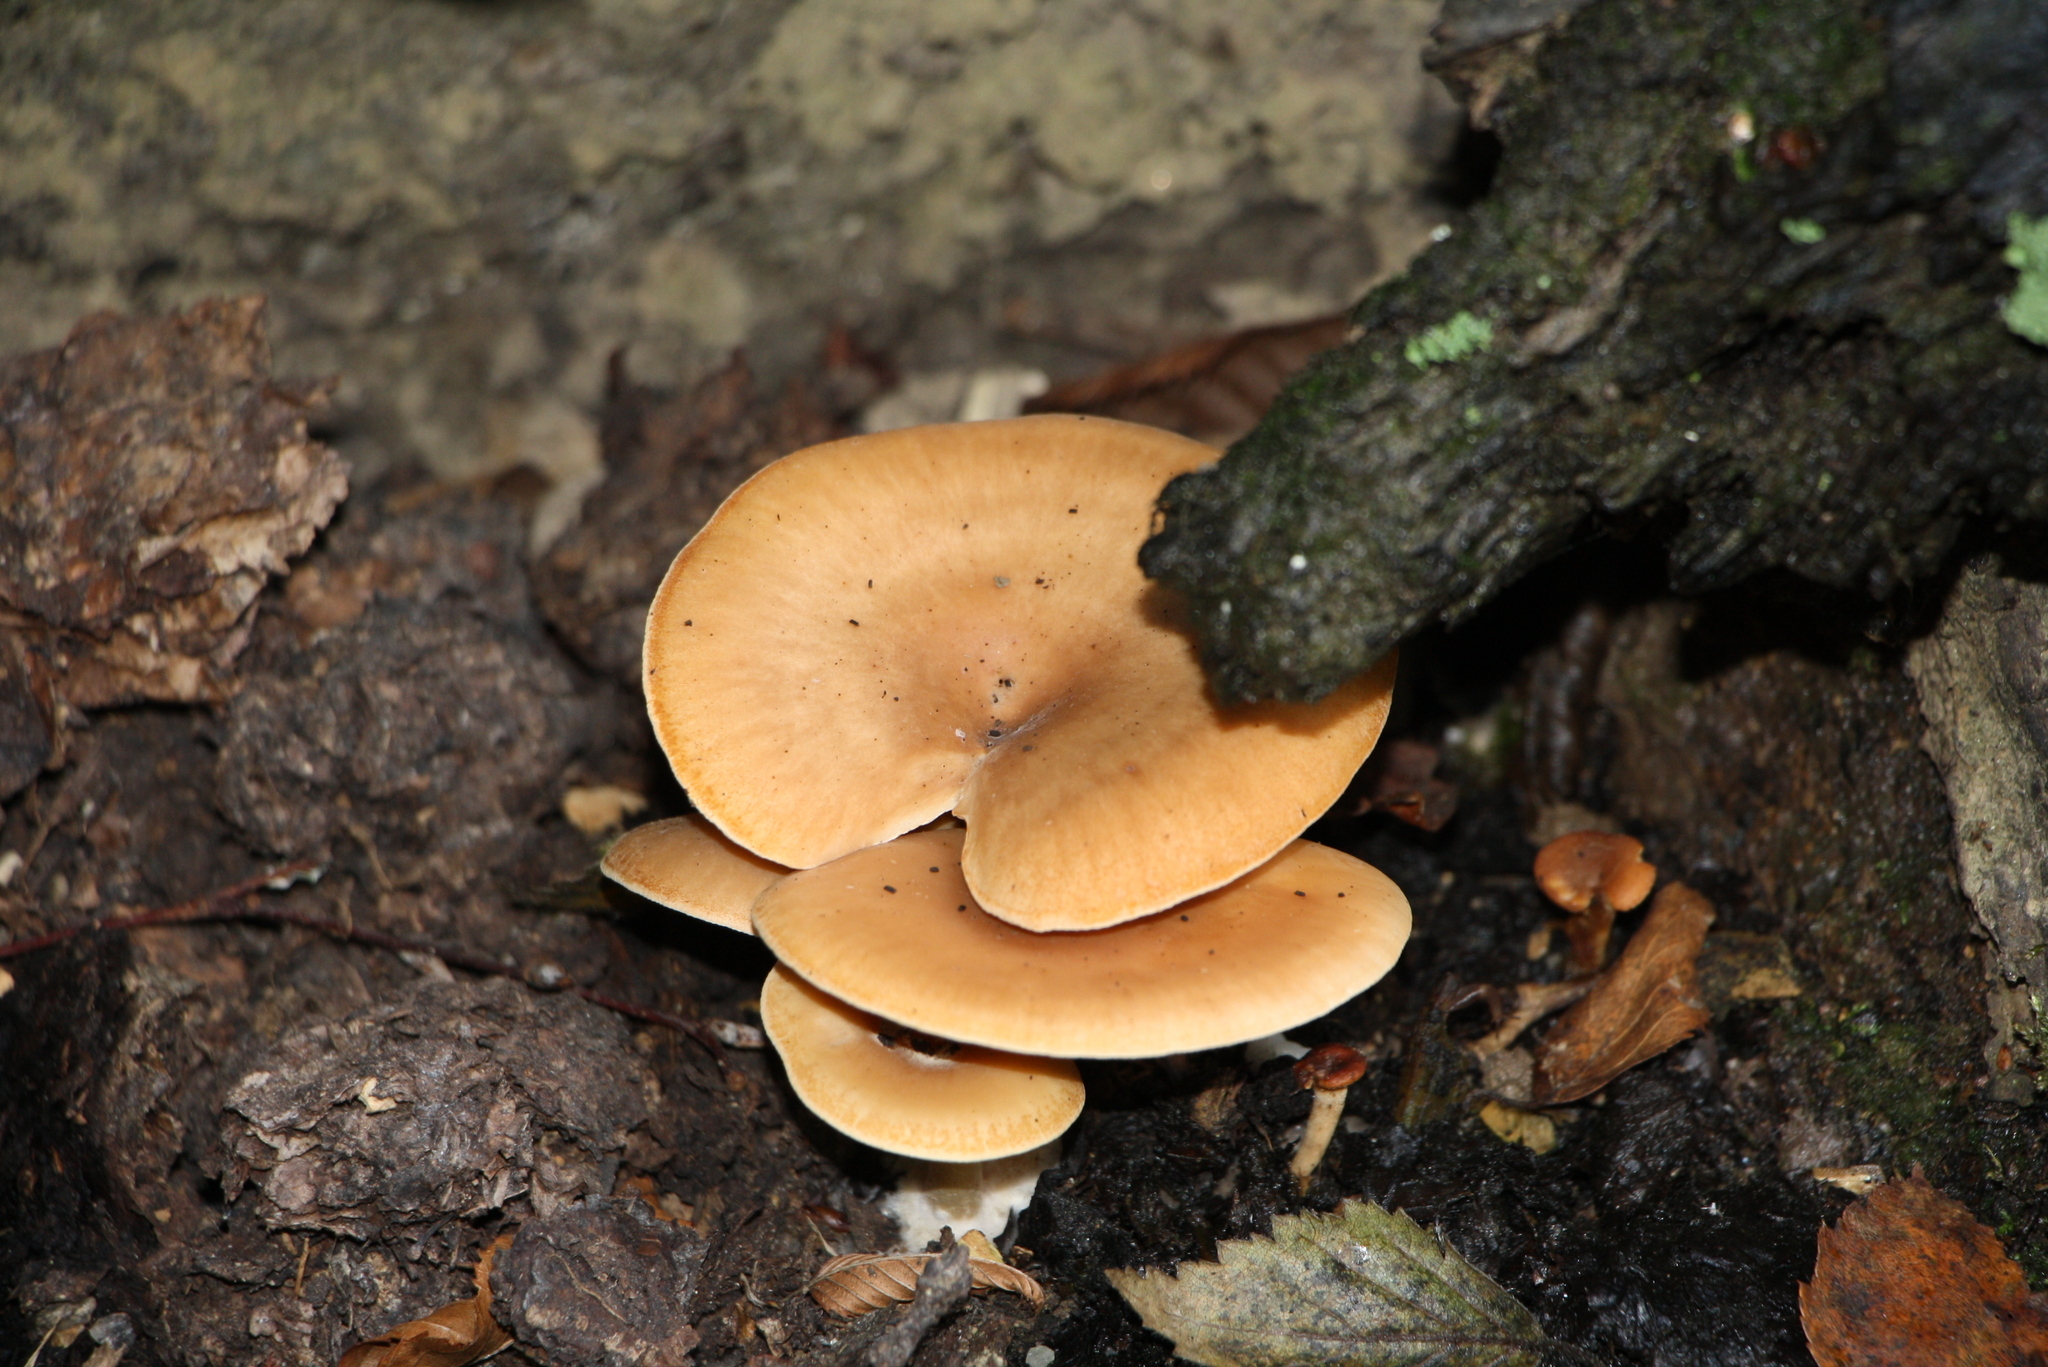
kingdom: Fungi
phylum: Basidiomycota
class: Agaricomycetes
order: Agaricales
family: Tricholomataceae
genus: Paralepista
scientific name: Paralepista flaccida
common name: Tawny funnel cap
